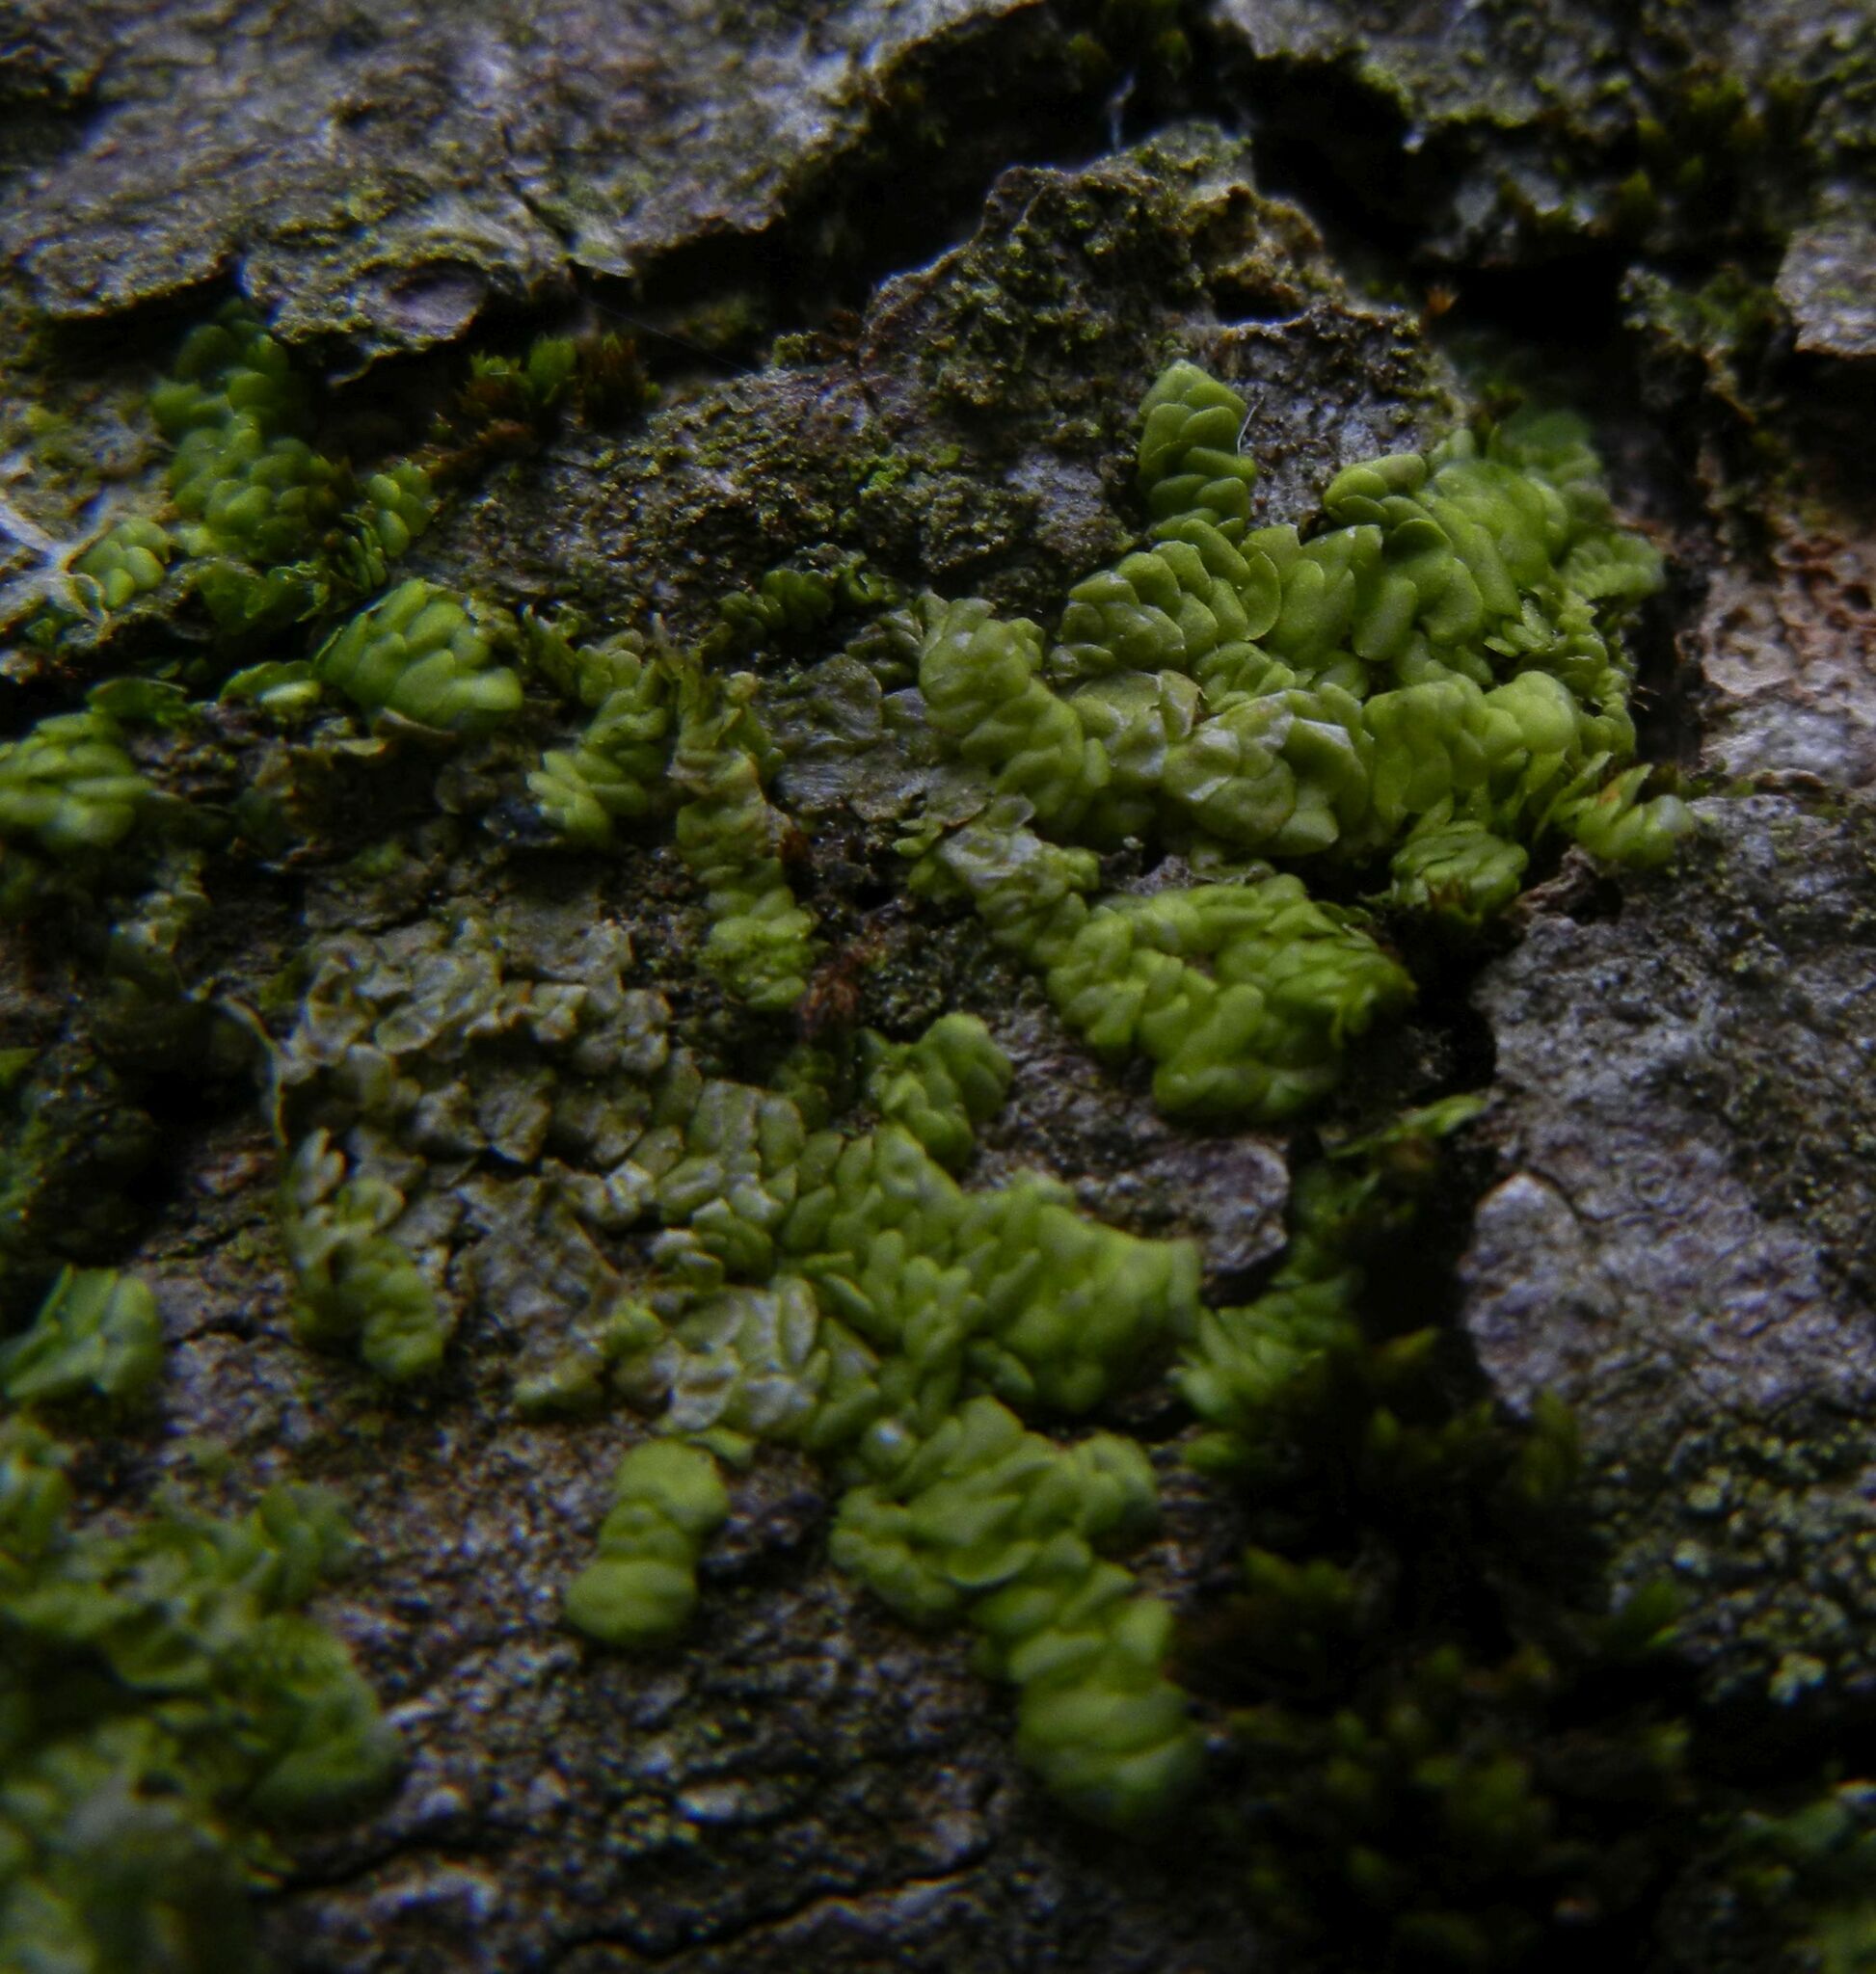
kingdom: Plantae
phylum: Marchantiophyta
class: Jungermanniopsida
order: Porellales
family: Radulaceae
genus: Radula
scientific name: Radula complanata
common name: Flat-leaved scalewort
